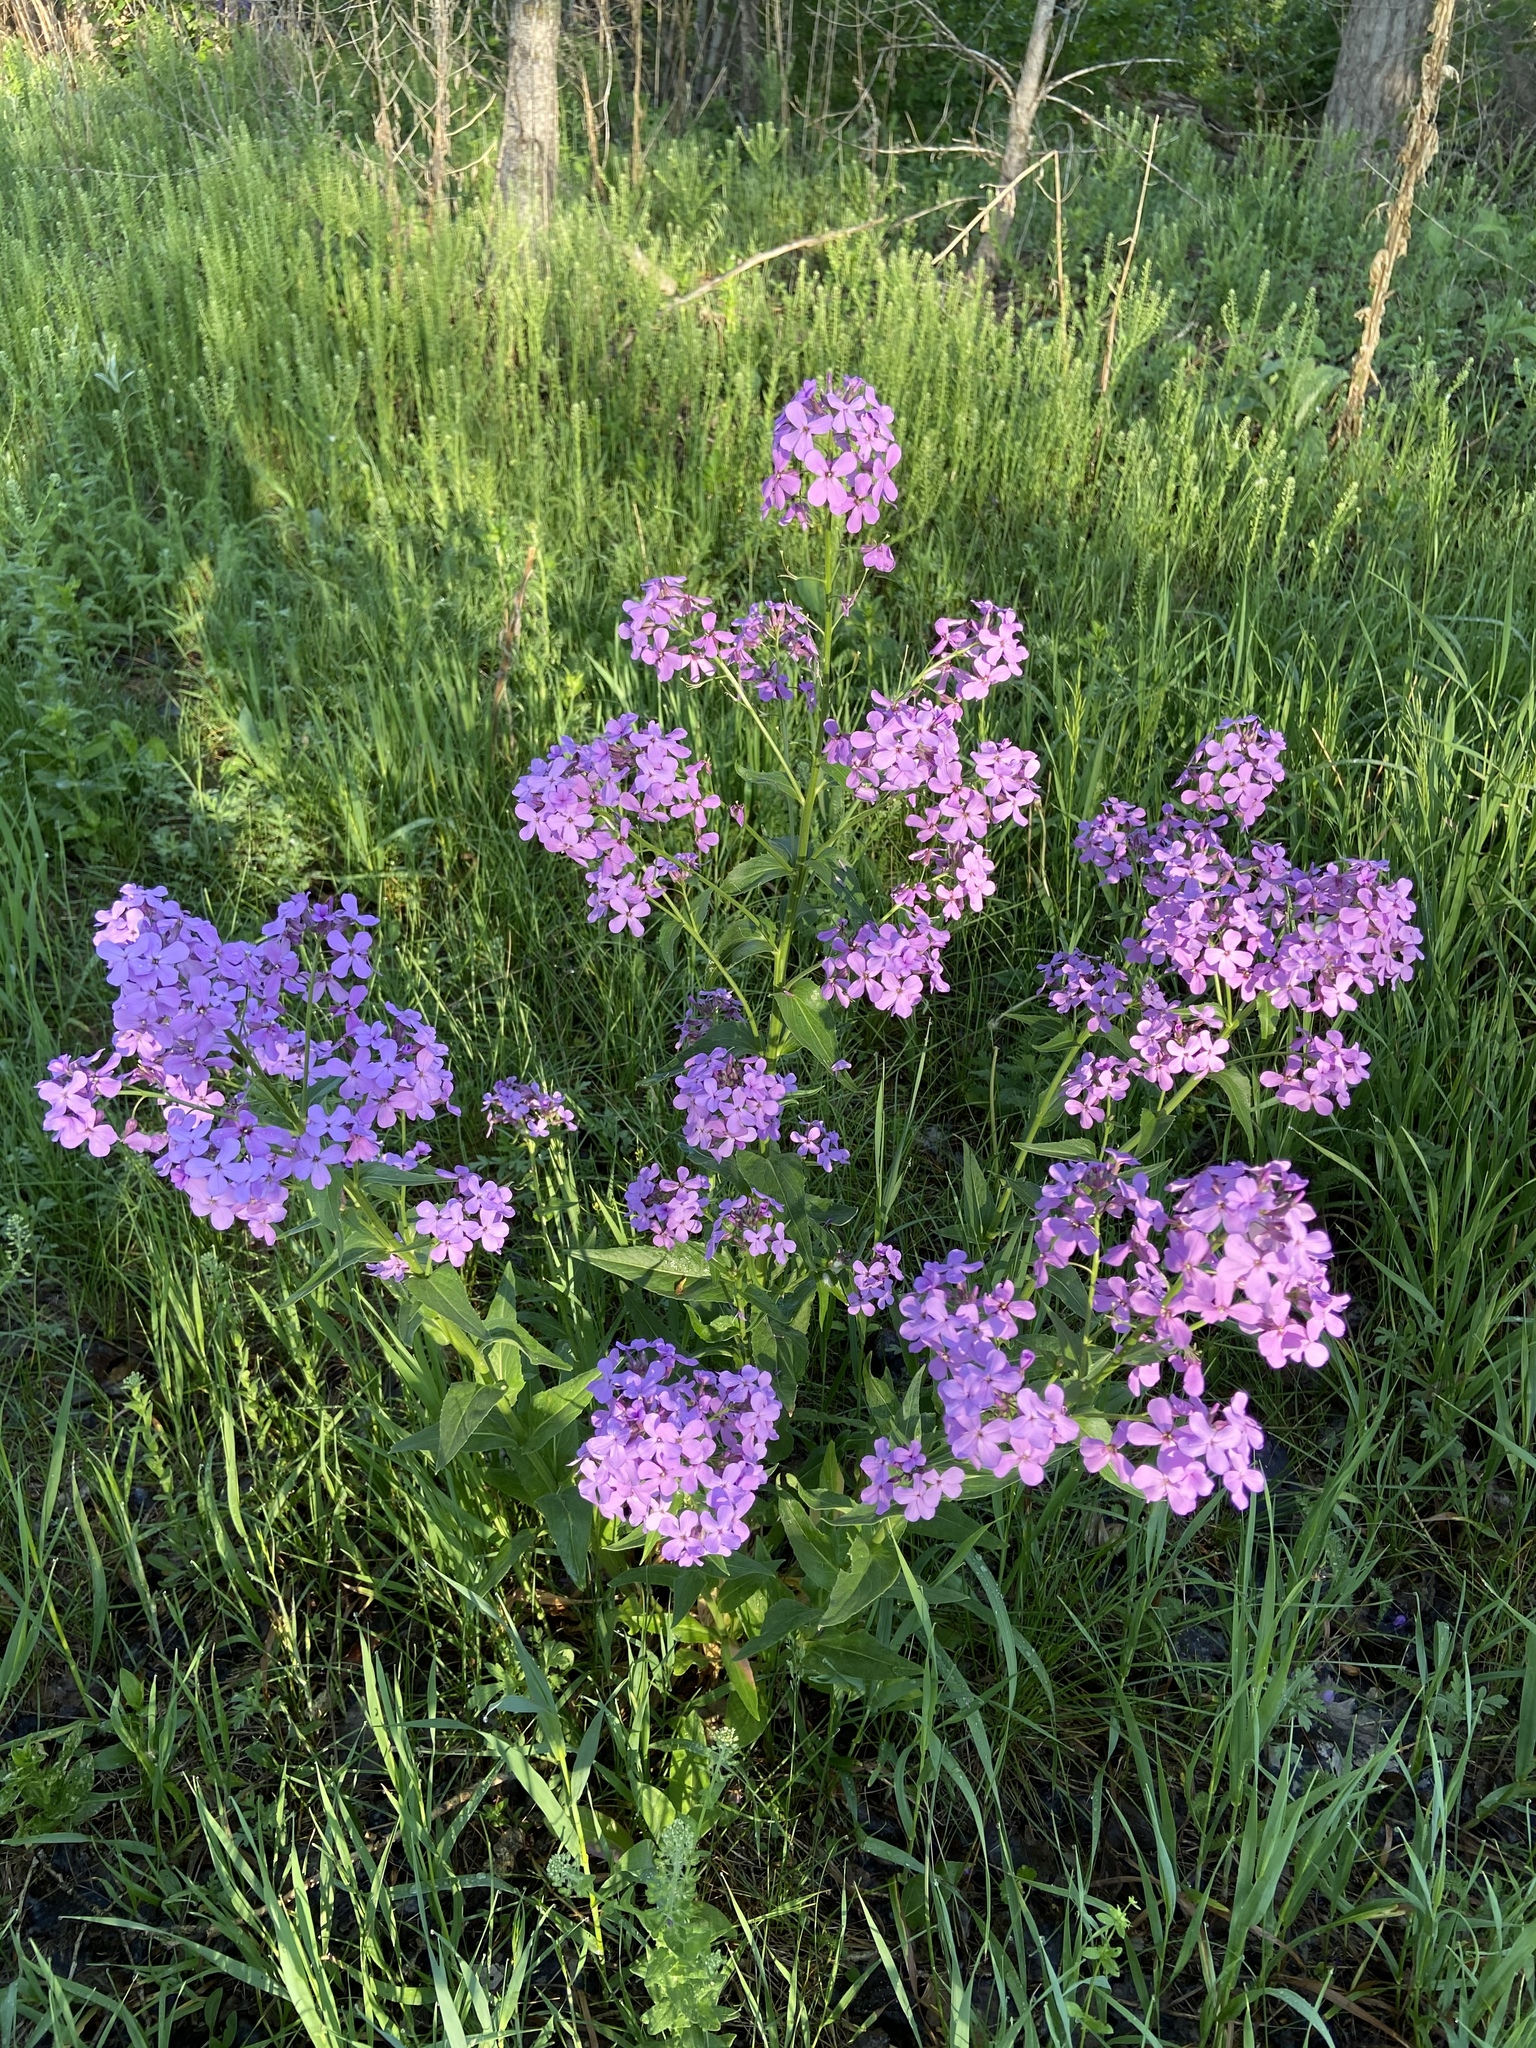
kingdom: Plantae
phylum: Tracheophyta
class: Magnoliopsida
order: Brassicales
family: Brassicaceae
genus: Hesperis
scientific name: Hesperis matronalis
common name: Dame's-violet
